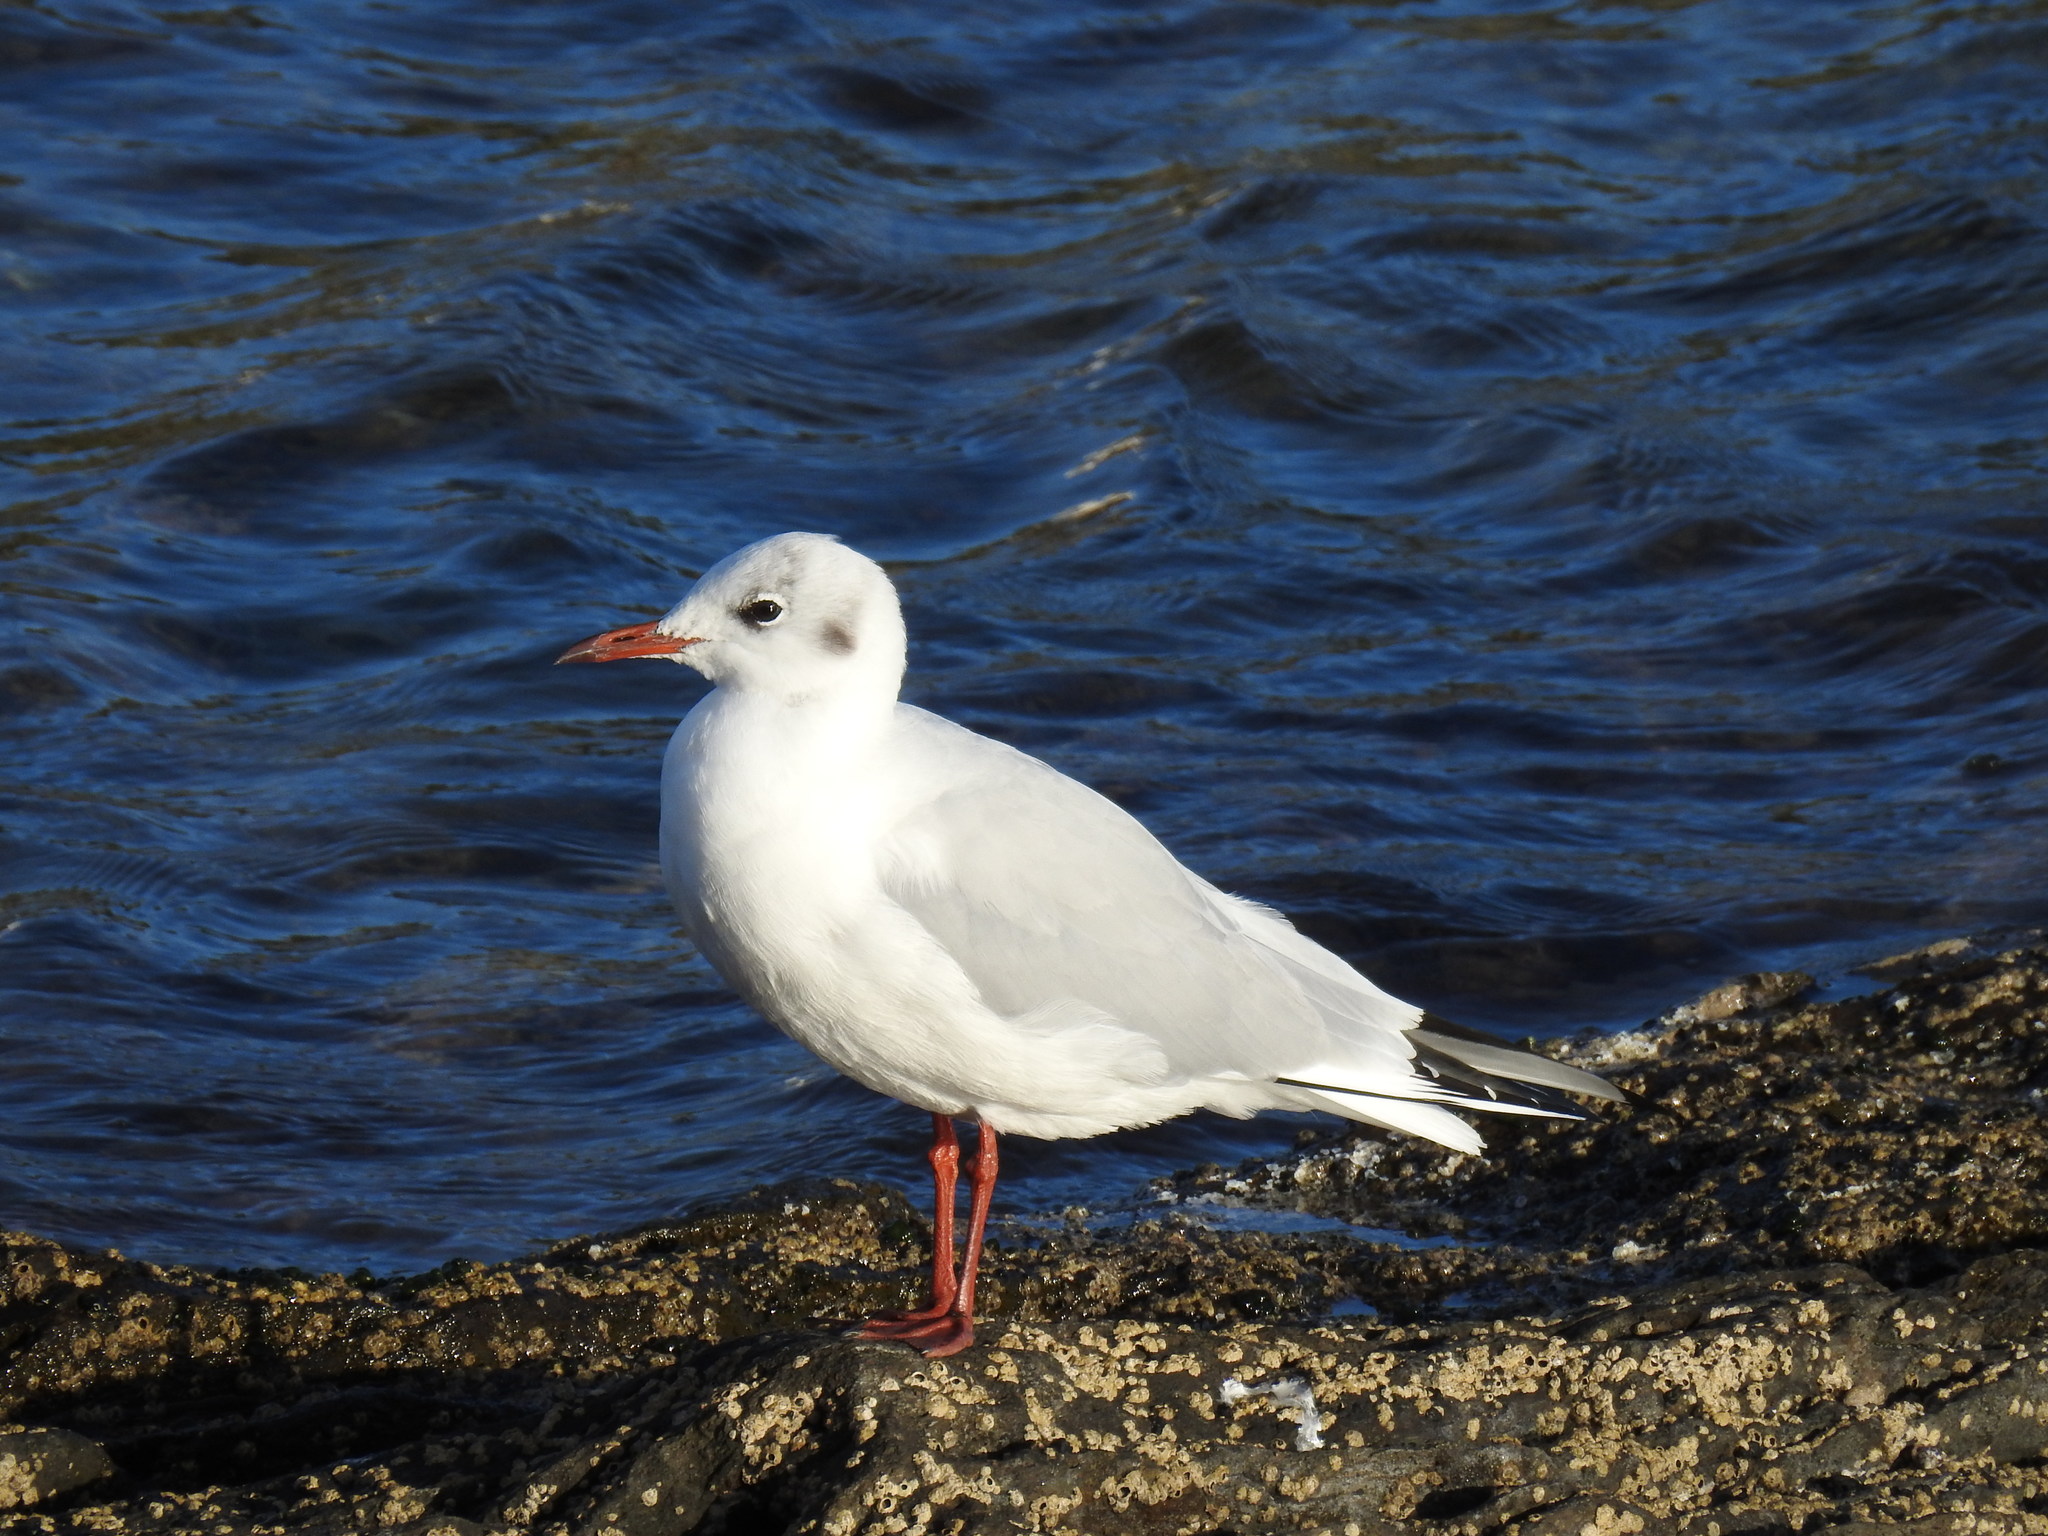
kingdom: Animalia
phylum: Chordata
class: Aves
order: Charadriiformes
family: Laridae
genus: Chroicocephalus
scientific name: Chroicocephalus ridibundus
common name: Black-headed gull
